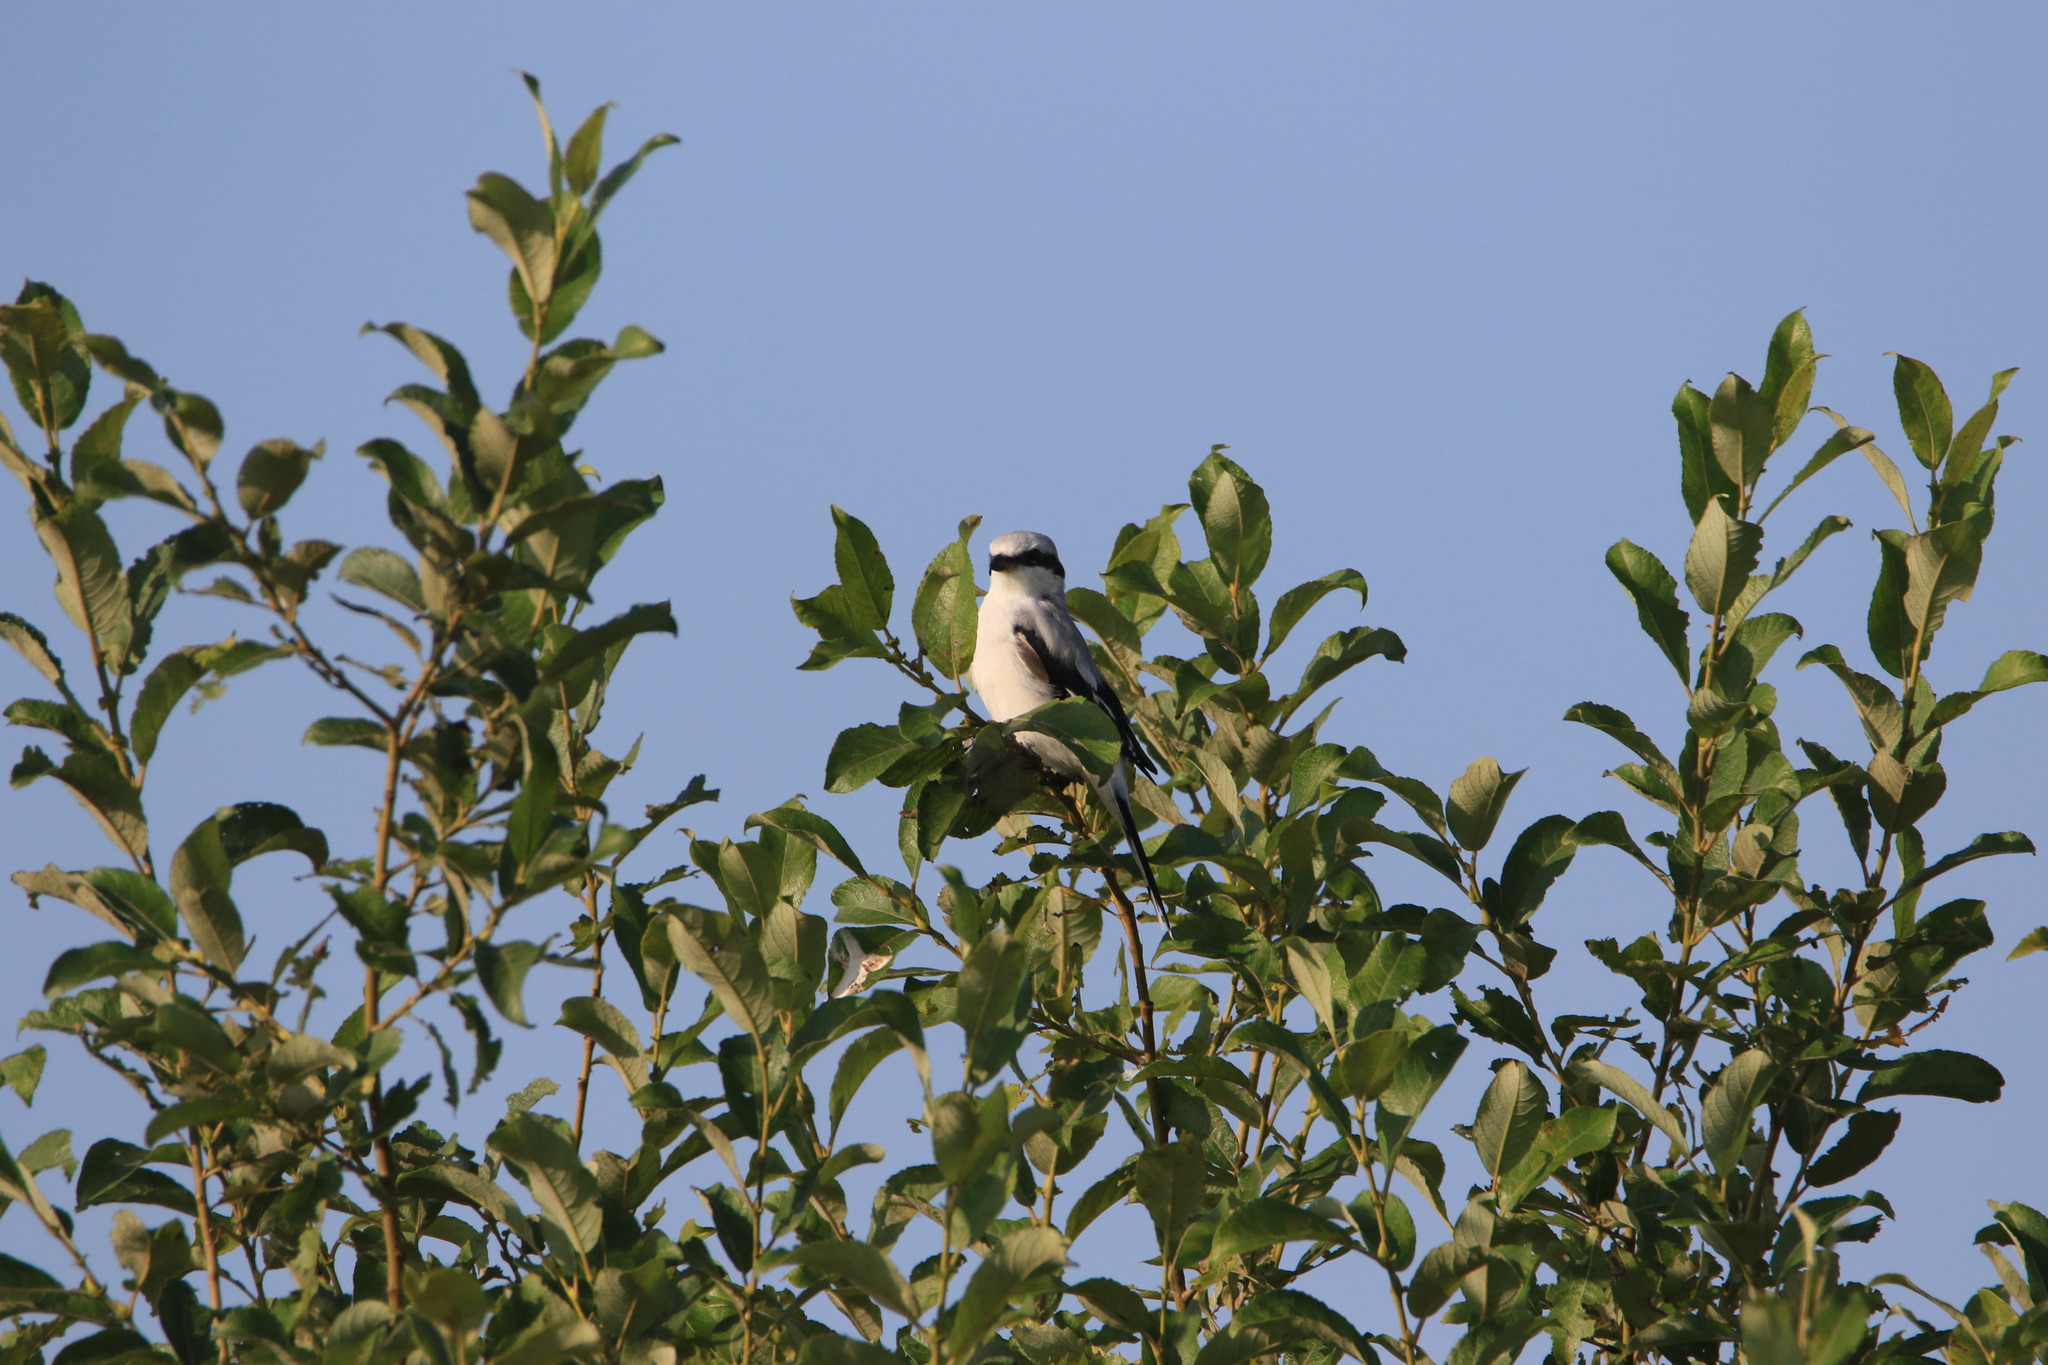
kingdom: Animalia
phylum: Chordata
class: Aves
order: Passeriformes
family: Laniidae
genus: Lanius
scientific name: Lanius excubitor
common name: Great grey shrike
